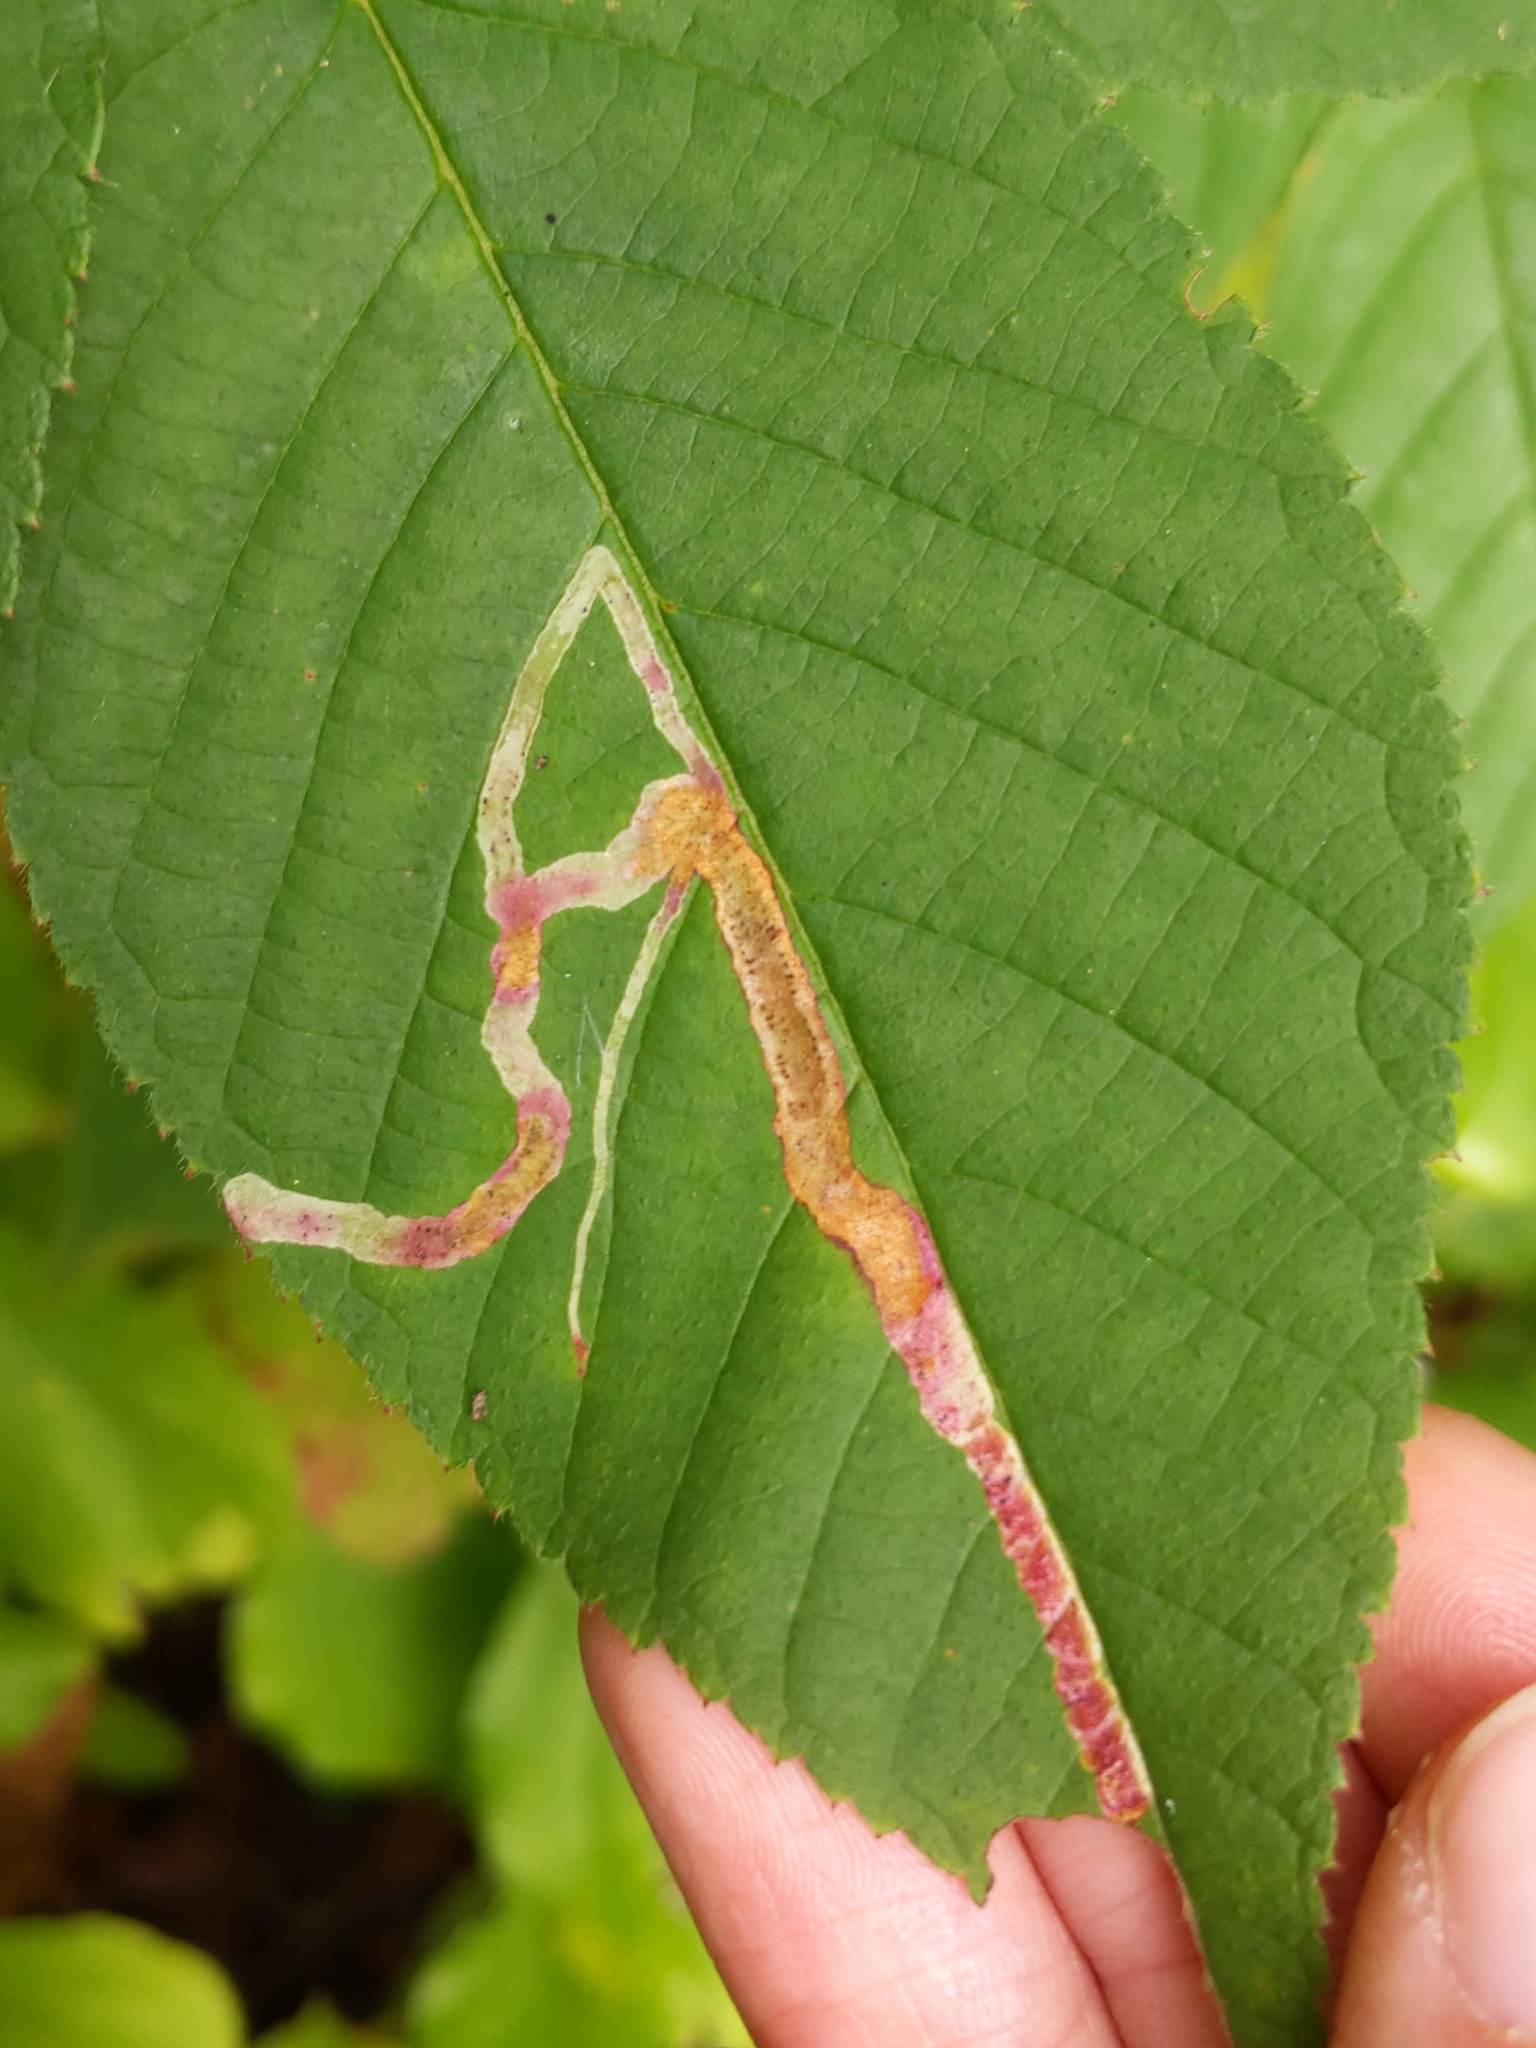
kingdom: Animalia
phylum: Arthropoda
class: Insecta
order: Diptera
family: Agromyzidae
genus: Agromyza
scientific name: Agromyza vockerothi
